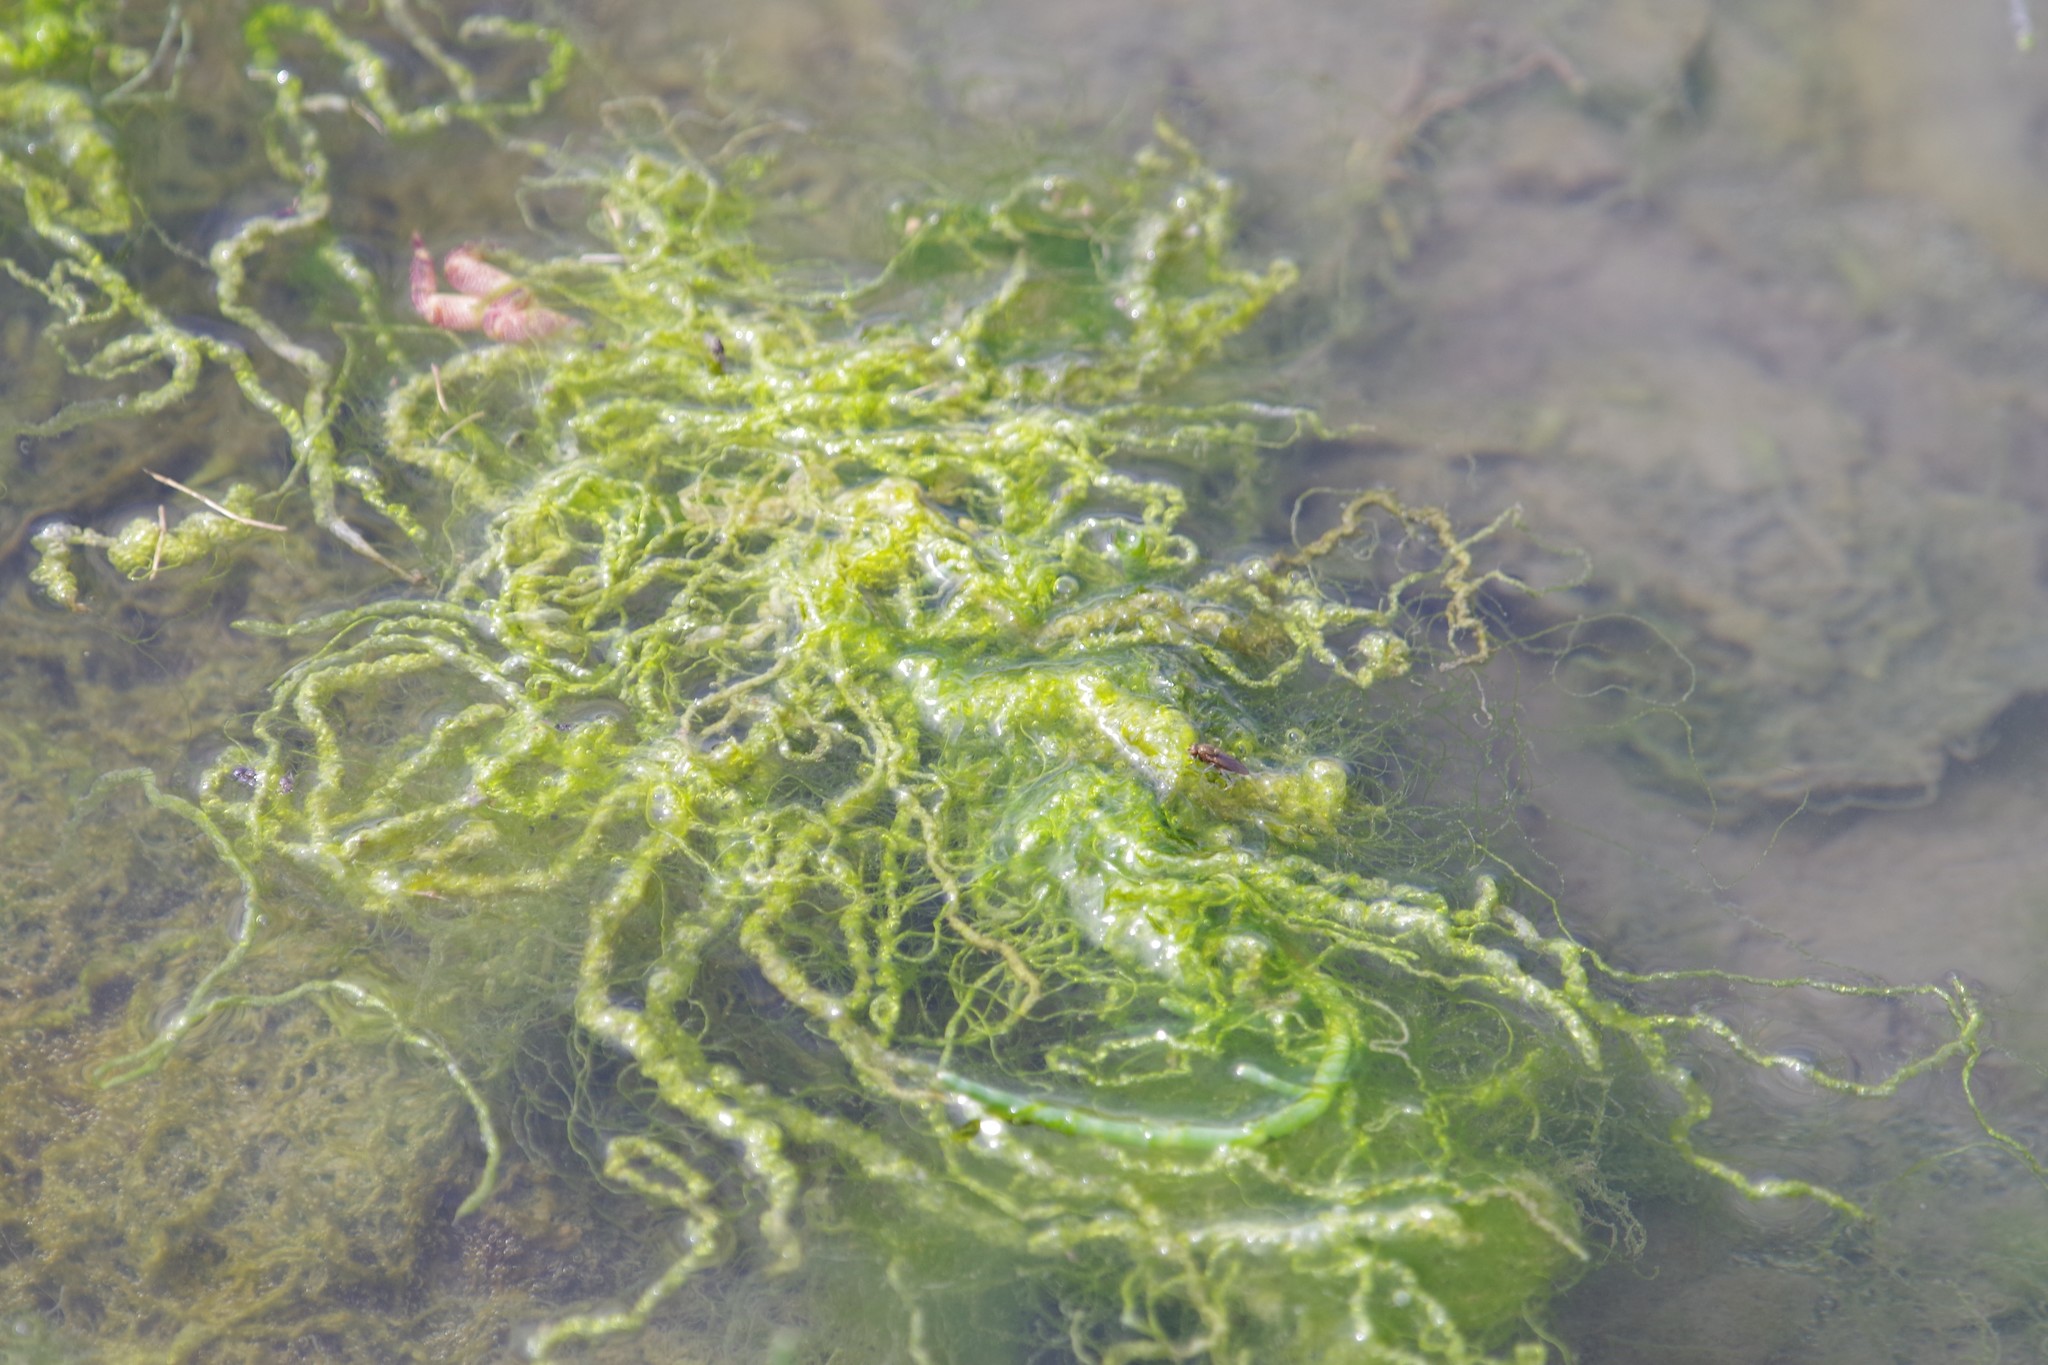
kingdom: Plantae
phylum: Chlorophyta
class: Ulvophyceae
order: Ulvales
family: Ulvaceae
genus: Ulva
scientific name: Ulva intestinalis
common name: Gut weed
